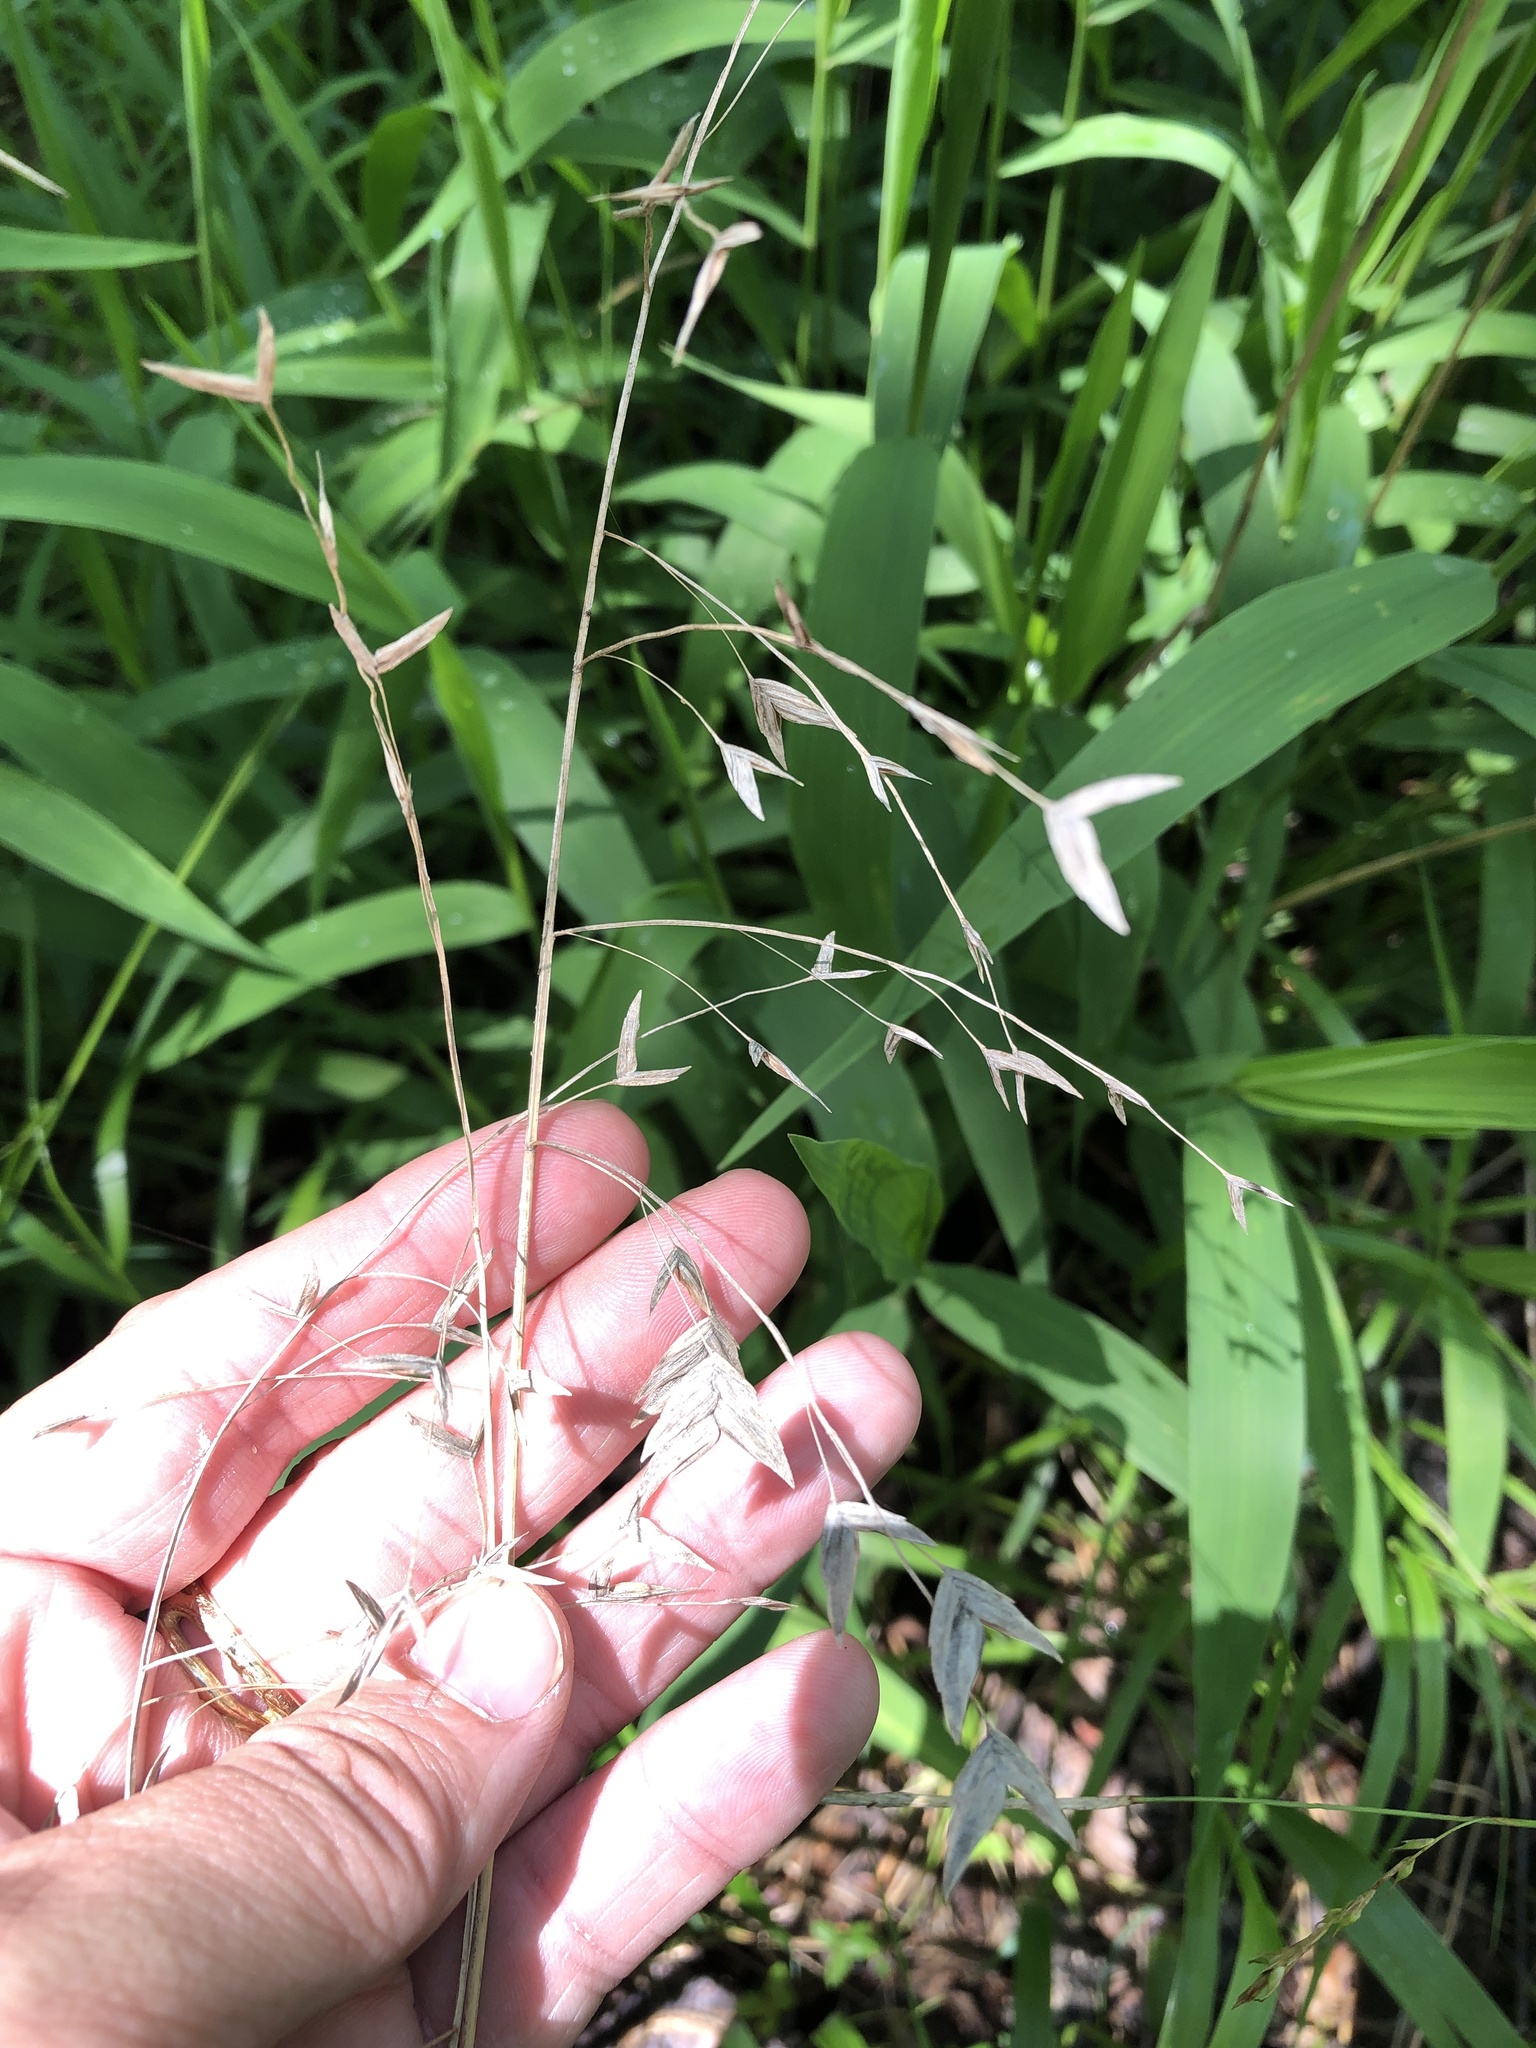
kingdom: Plantae
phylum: Tracheophyta
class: Liliopsida
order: Poales
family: Poaceae
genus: Chasmanthium
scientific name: Chasmanthium latifolium
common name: Broad-leaved chasmanthium
